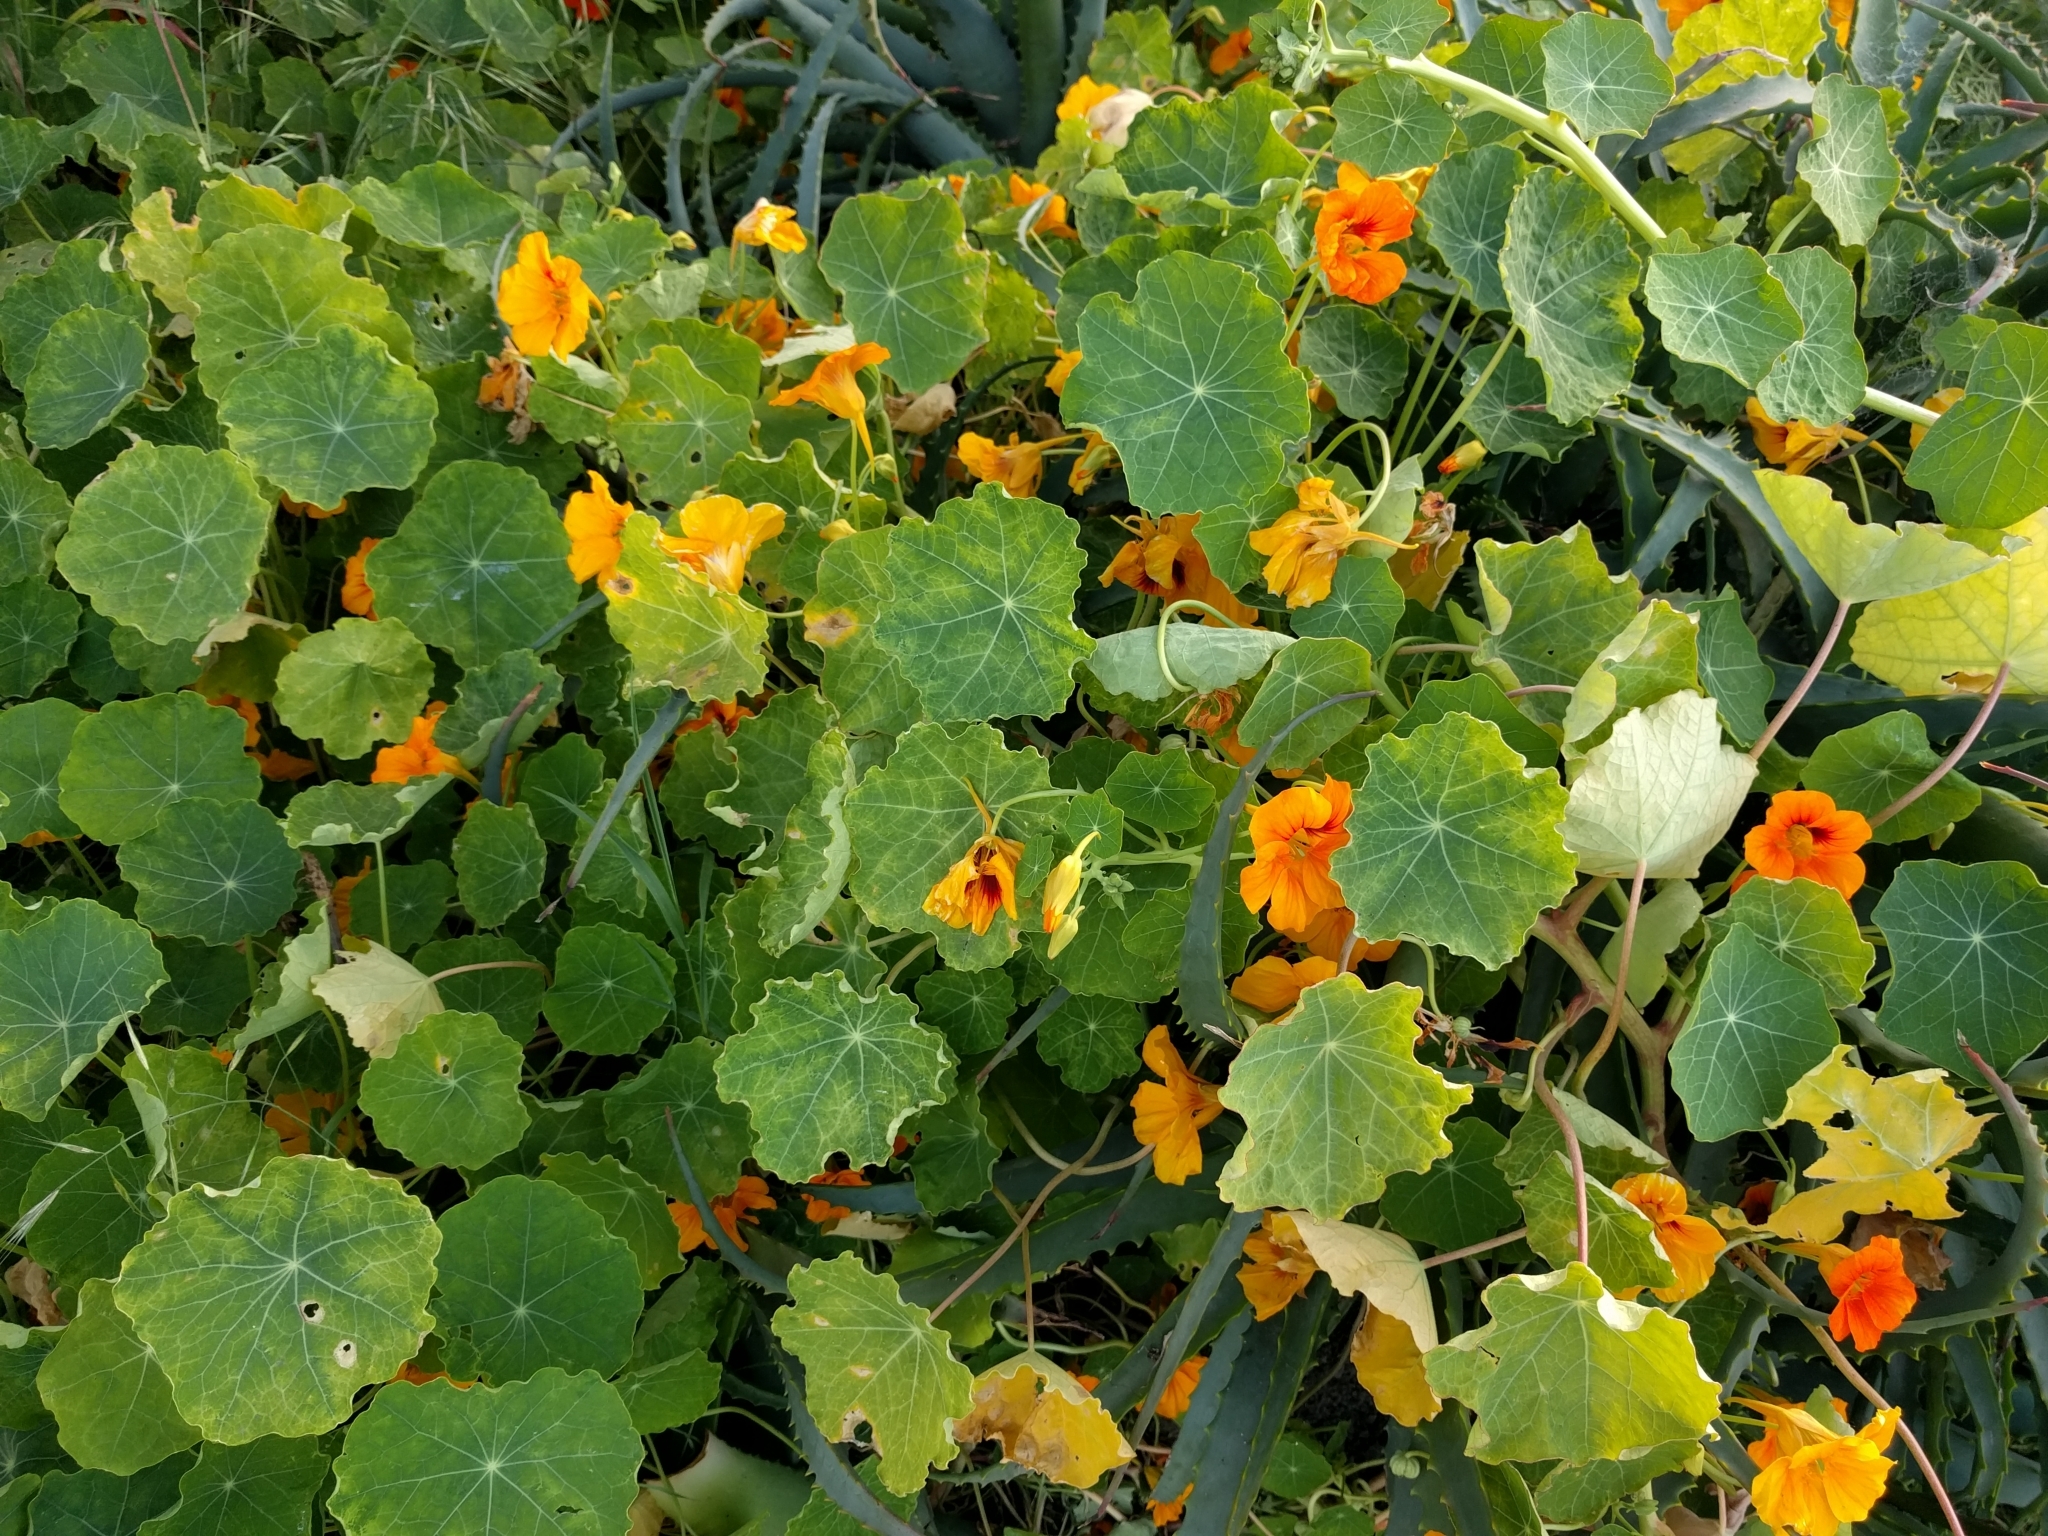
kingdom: Plantae
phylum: Tracheophyta
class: Magnoliopsida
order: Brassicales
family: Tropaeolaceae
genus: Tropaeolum
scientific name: Tropaeolum majus
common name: Nasturtium
